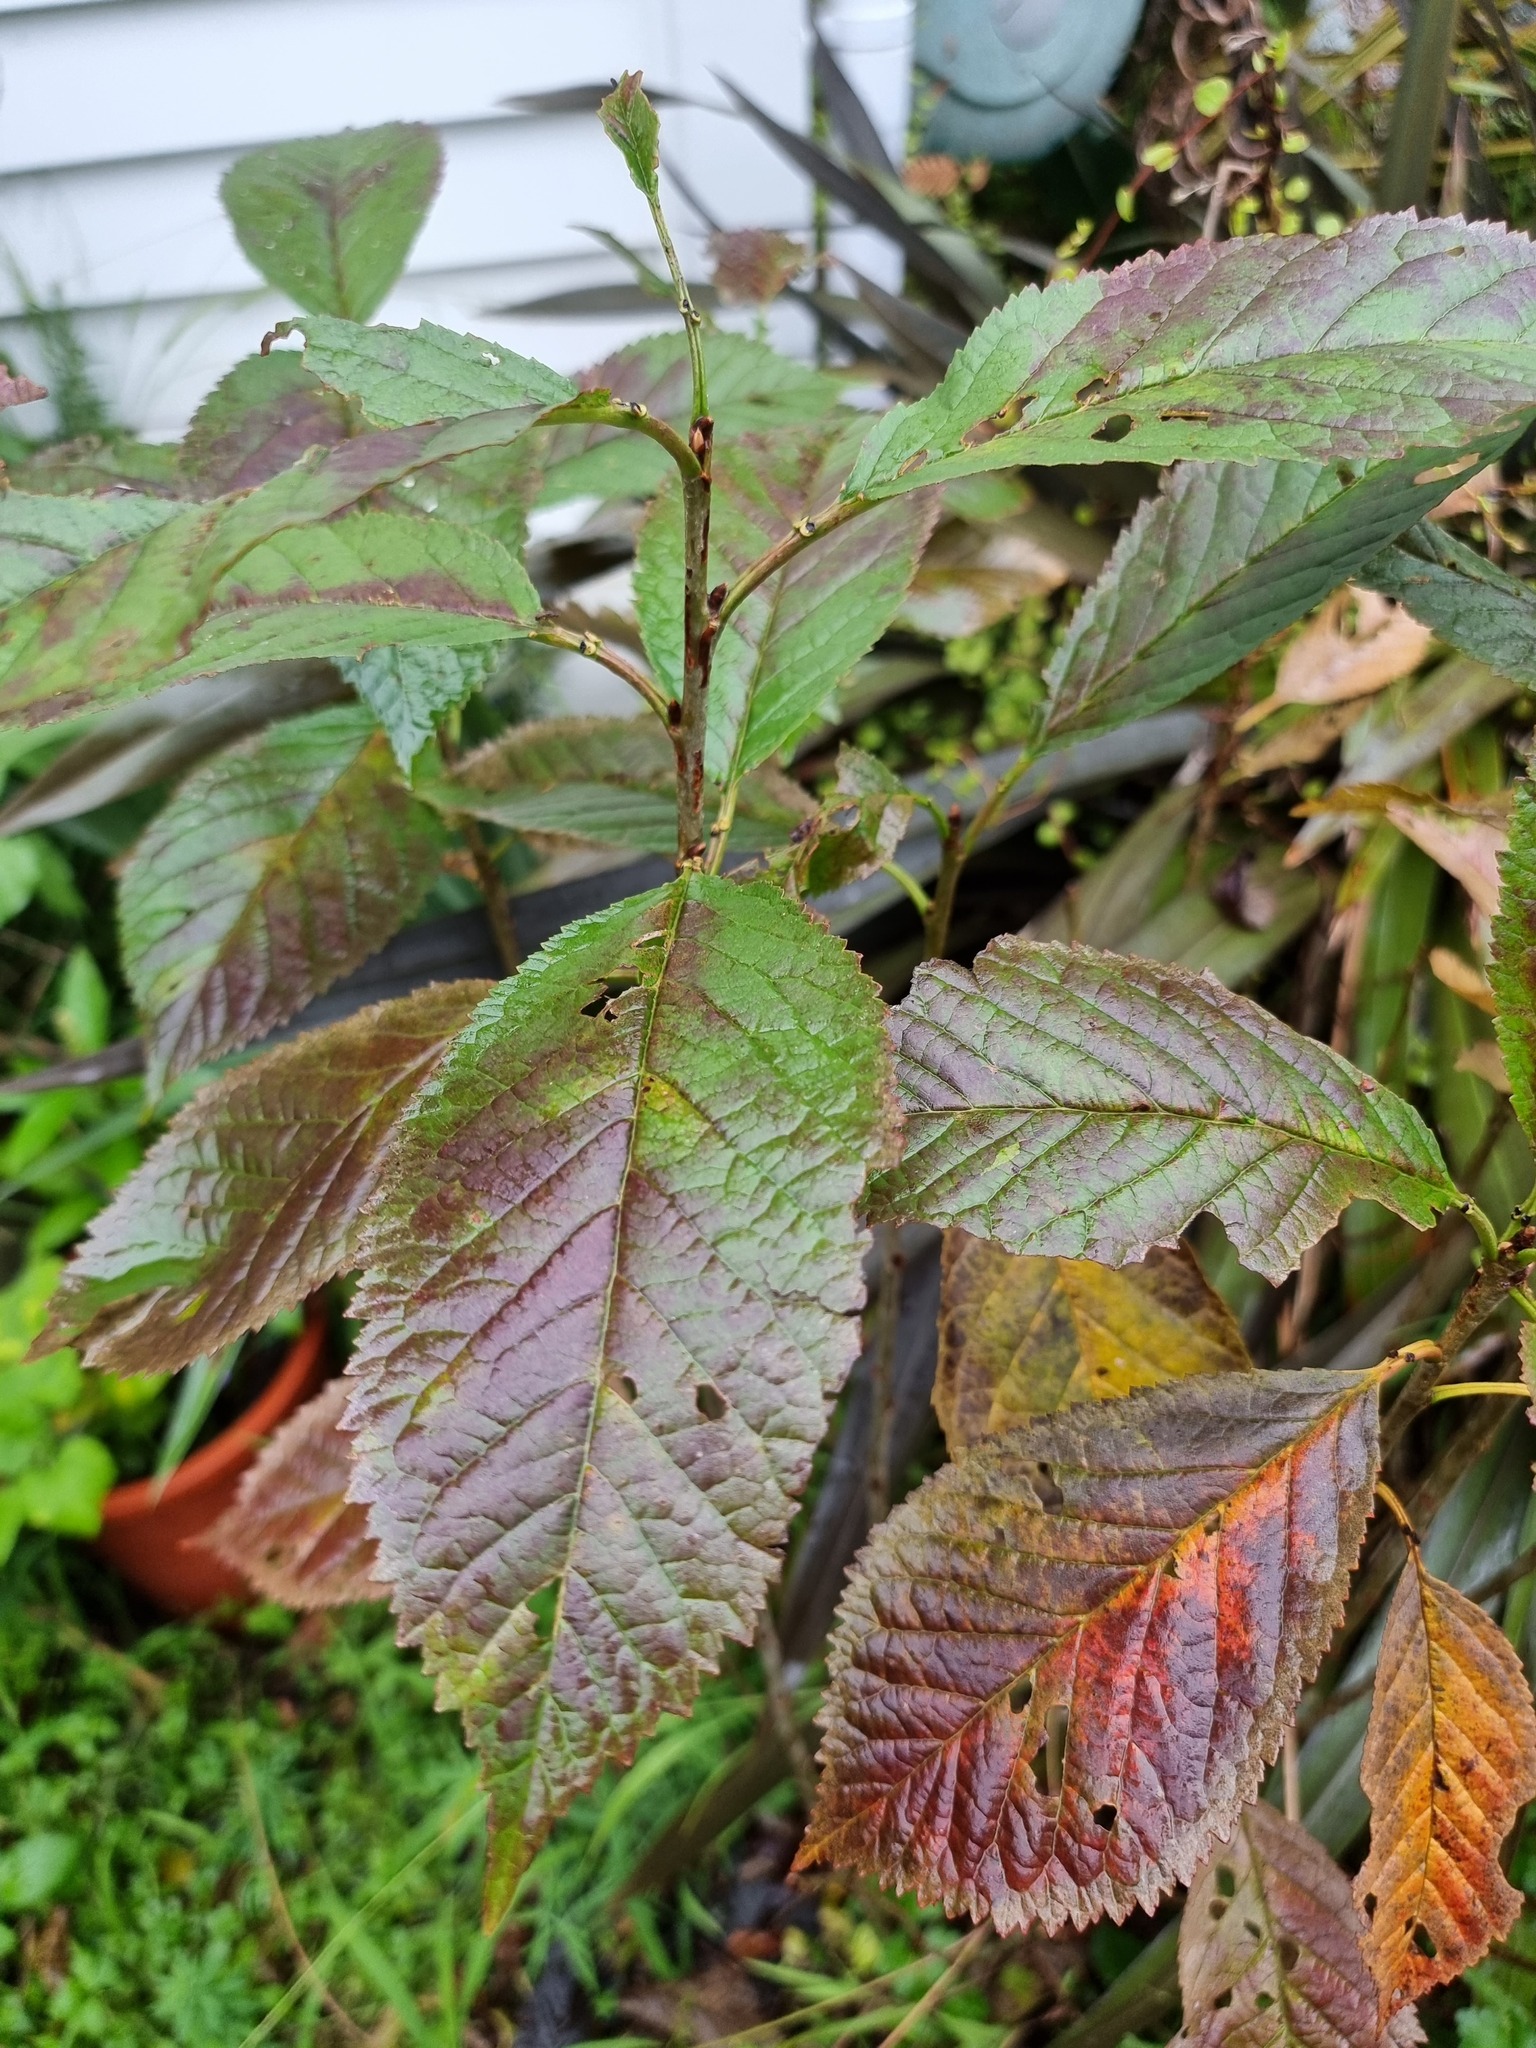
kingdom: Plantae
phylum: Tracheophyta
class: Magnoliopsida
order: Rosales
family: Rosaceae
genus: Prunus
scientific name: Prunus serrulata
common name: Japanese cherry
